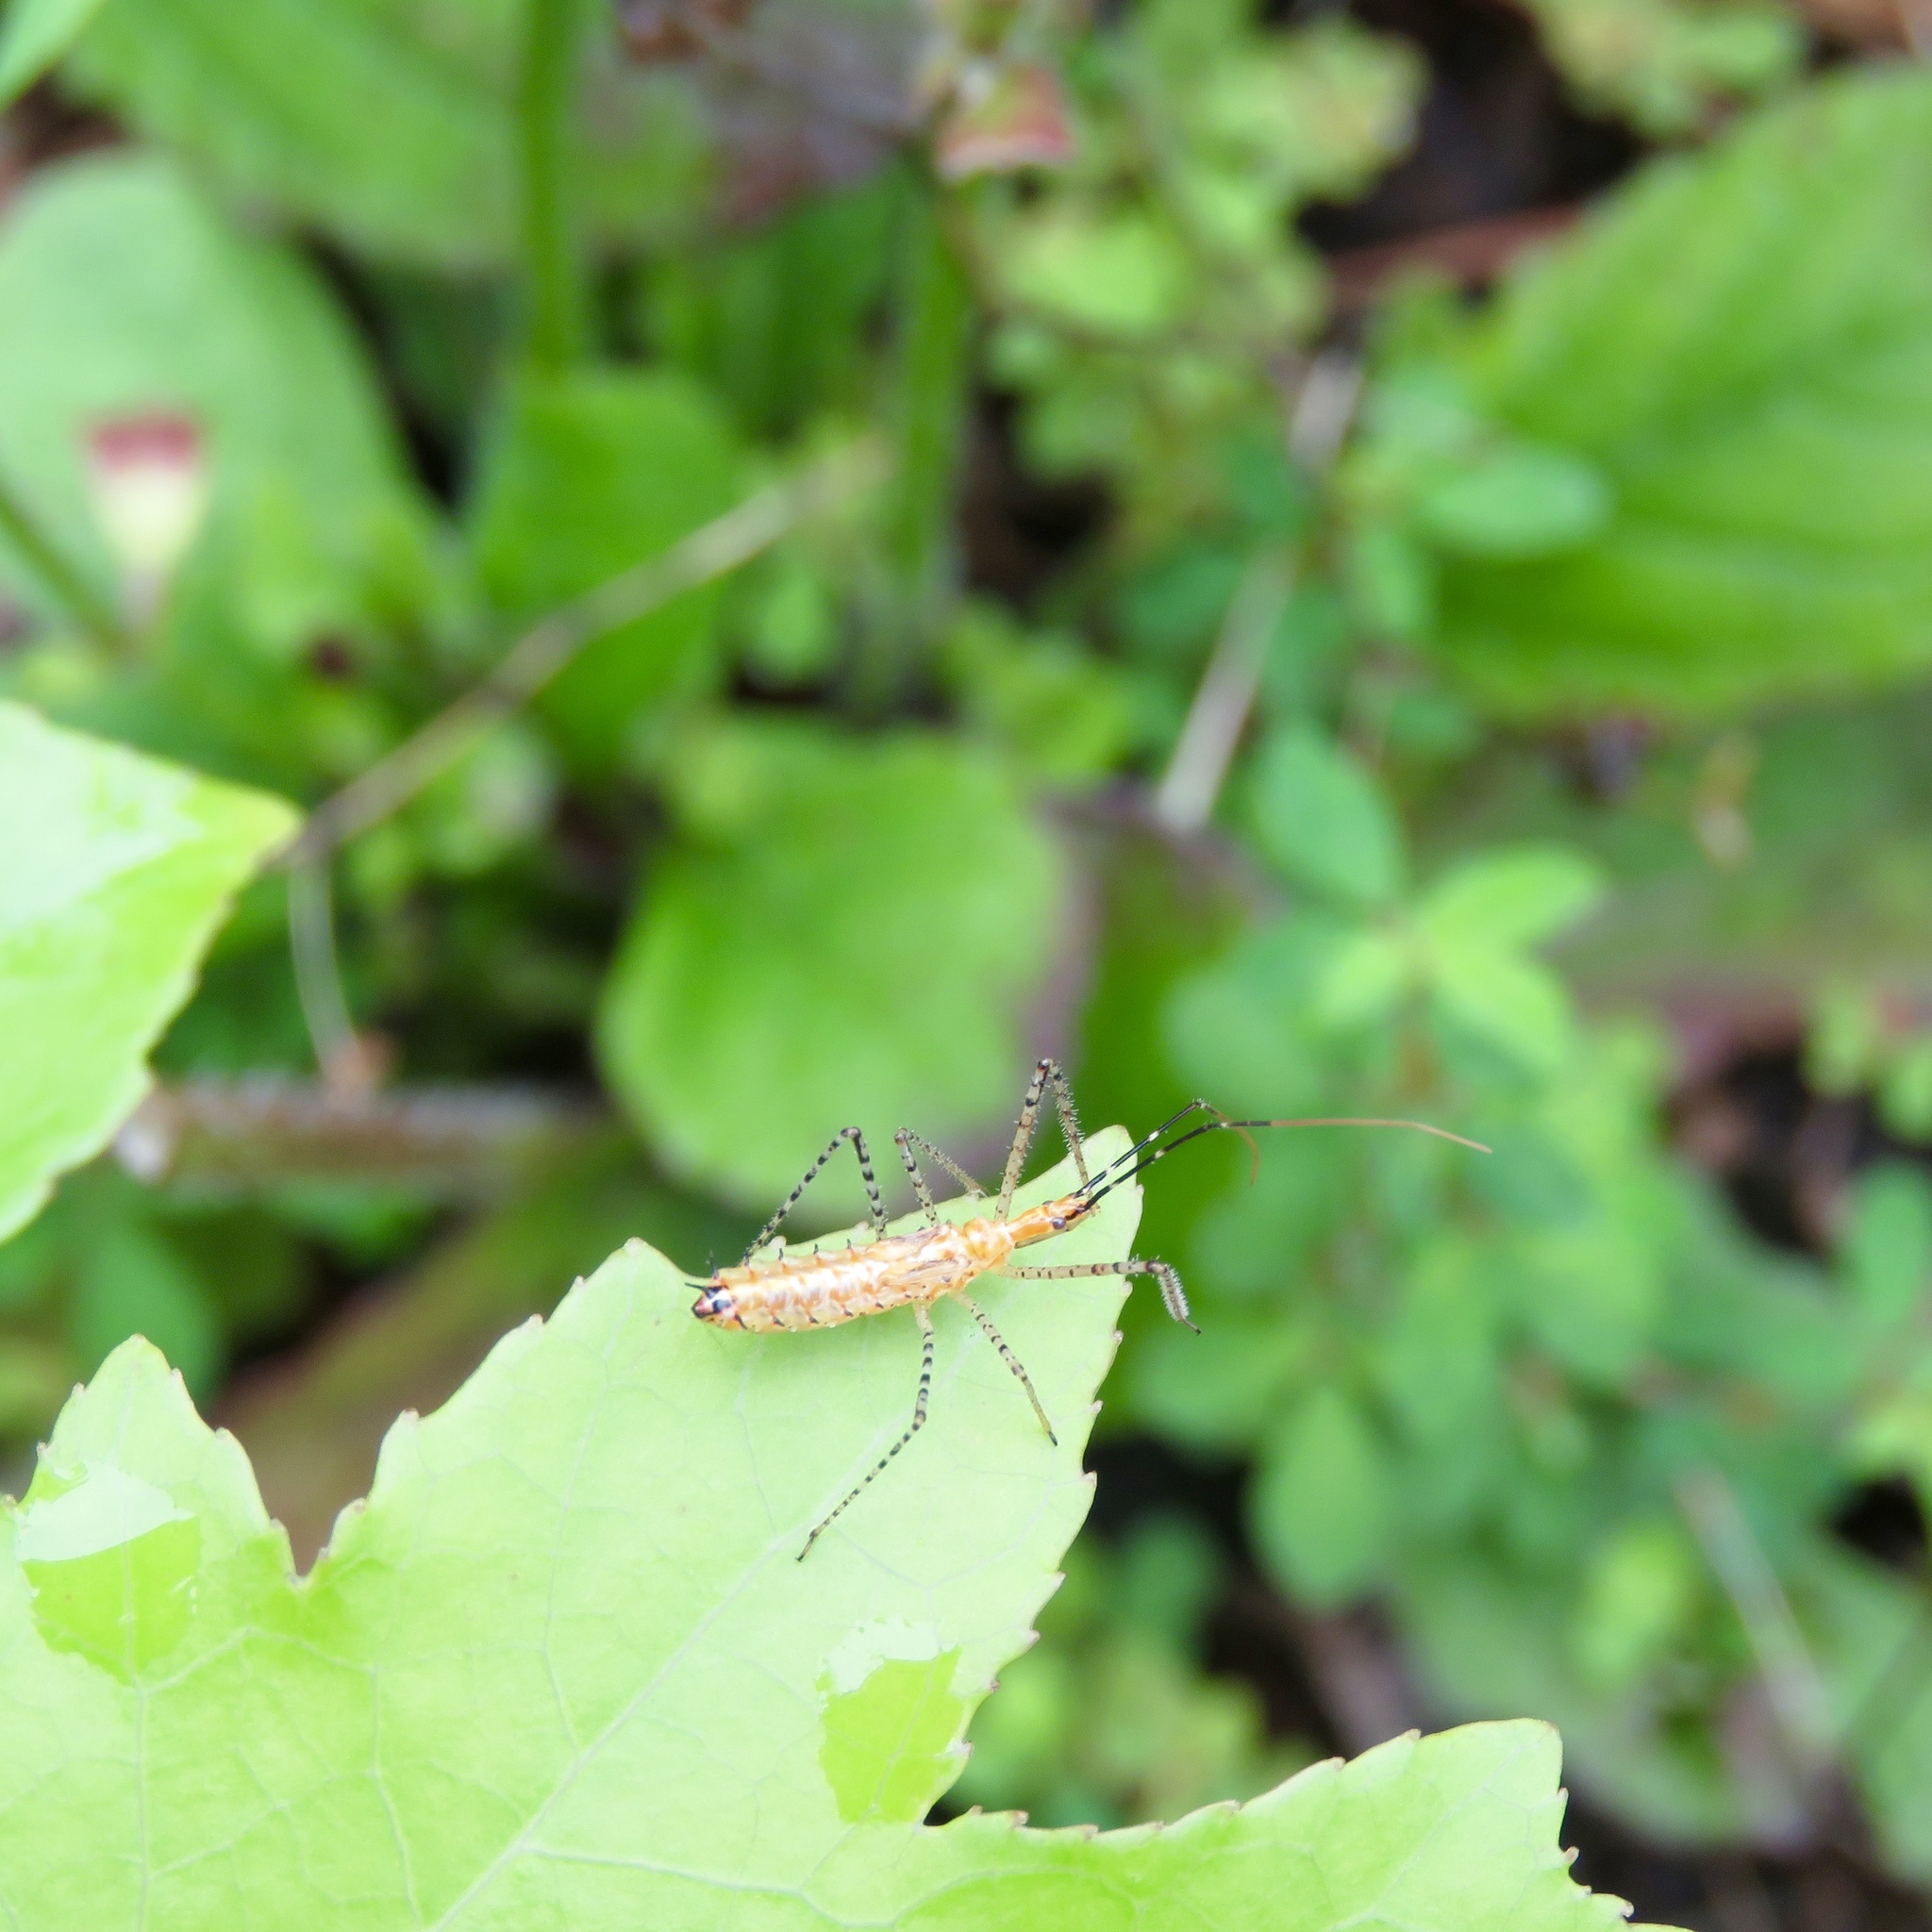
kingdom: Animalia
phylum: Arthropoda
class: Insecta
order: Hemiptera
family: Reduviidae
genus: Zelus
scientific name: Zelus renardii
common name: Assassin bug
